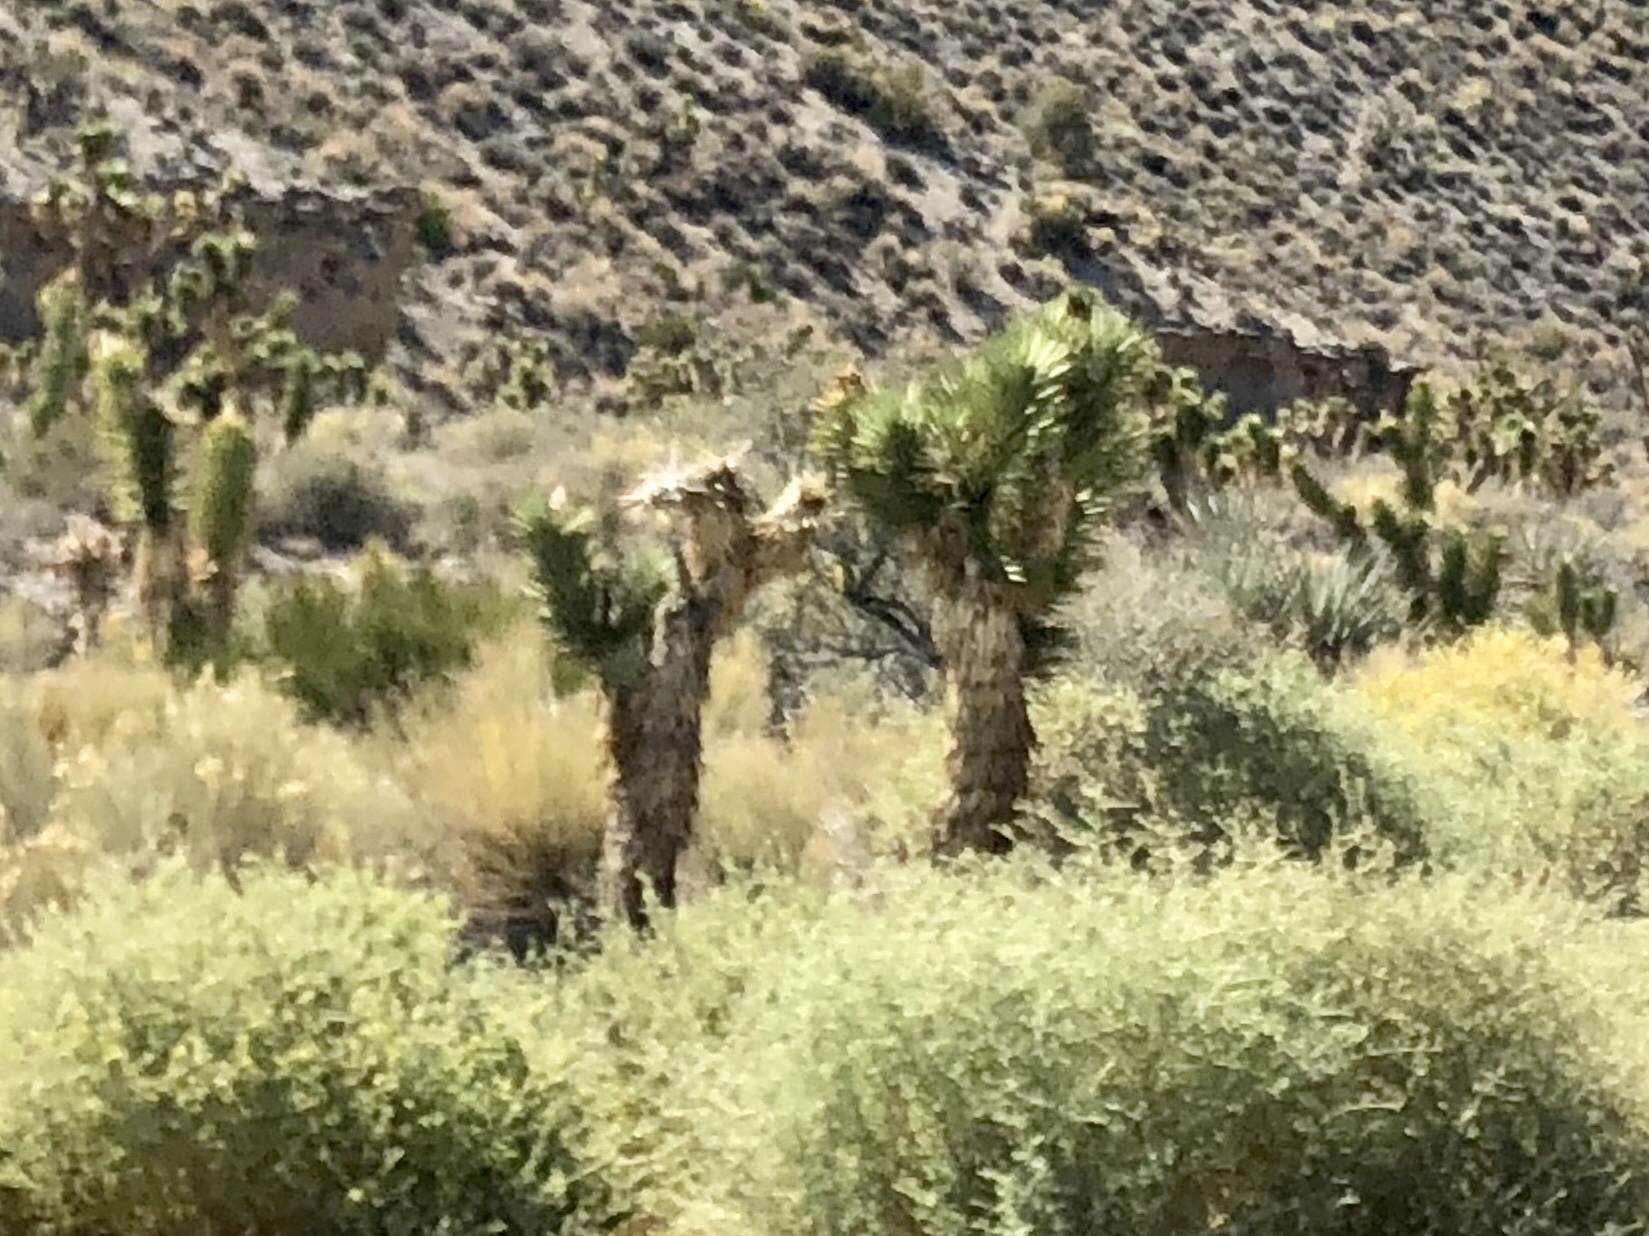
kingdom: Plantae
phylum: Tracheophyta
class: Liliopsida
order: Asparagales
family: Asparagaceae
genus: Yucca
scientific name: Yucca brevifolia
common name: Joshua tree
